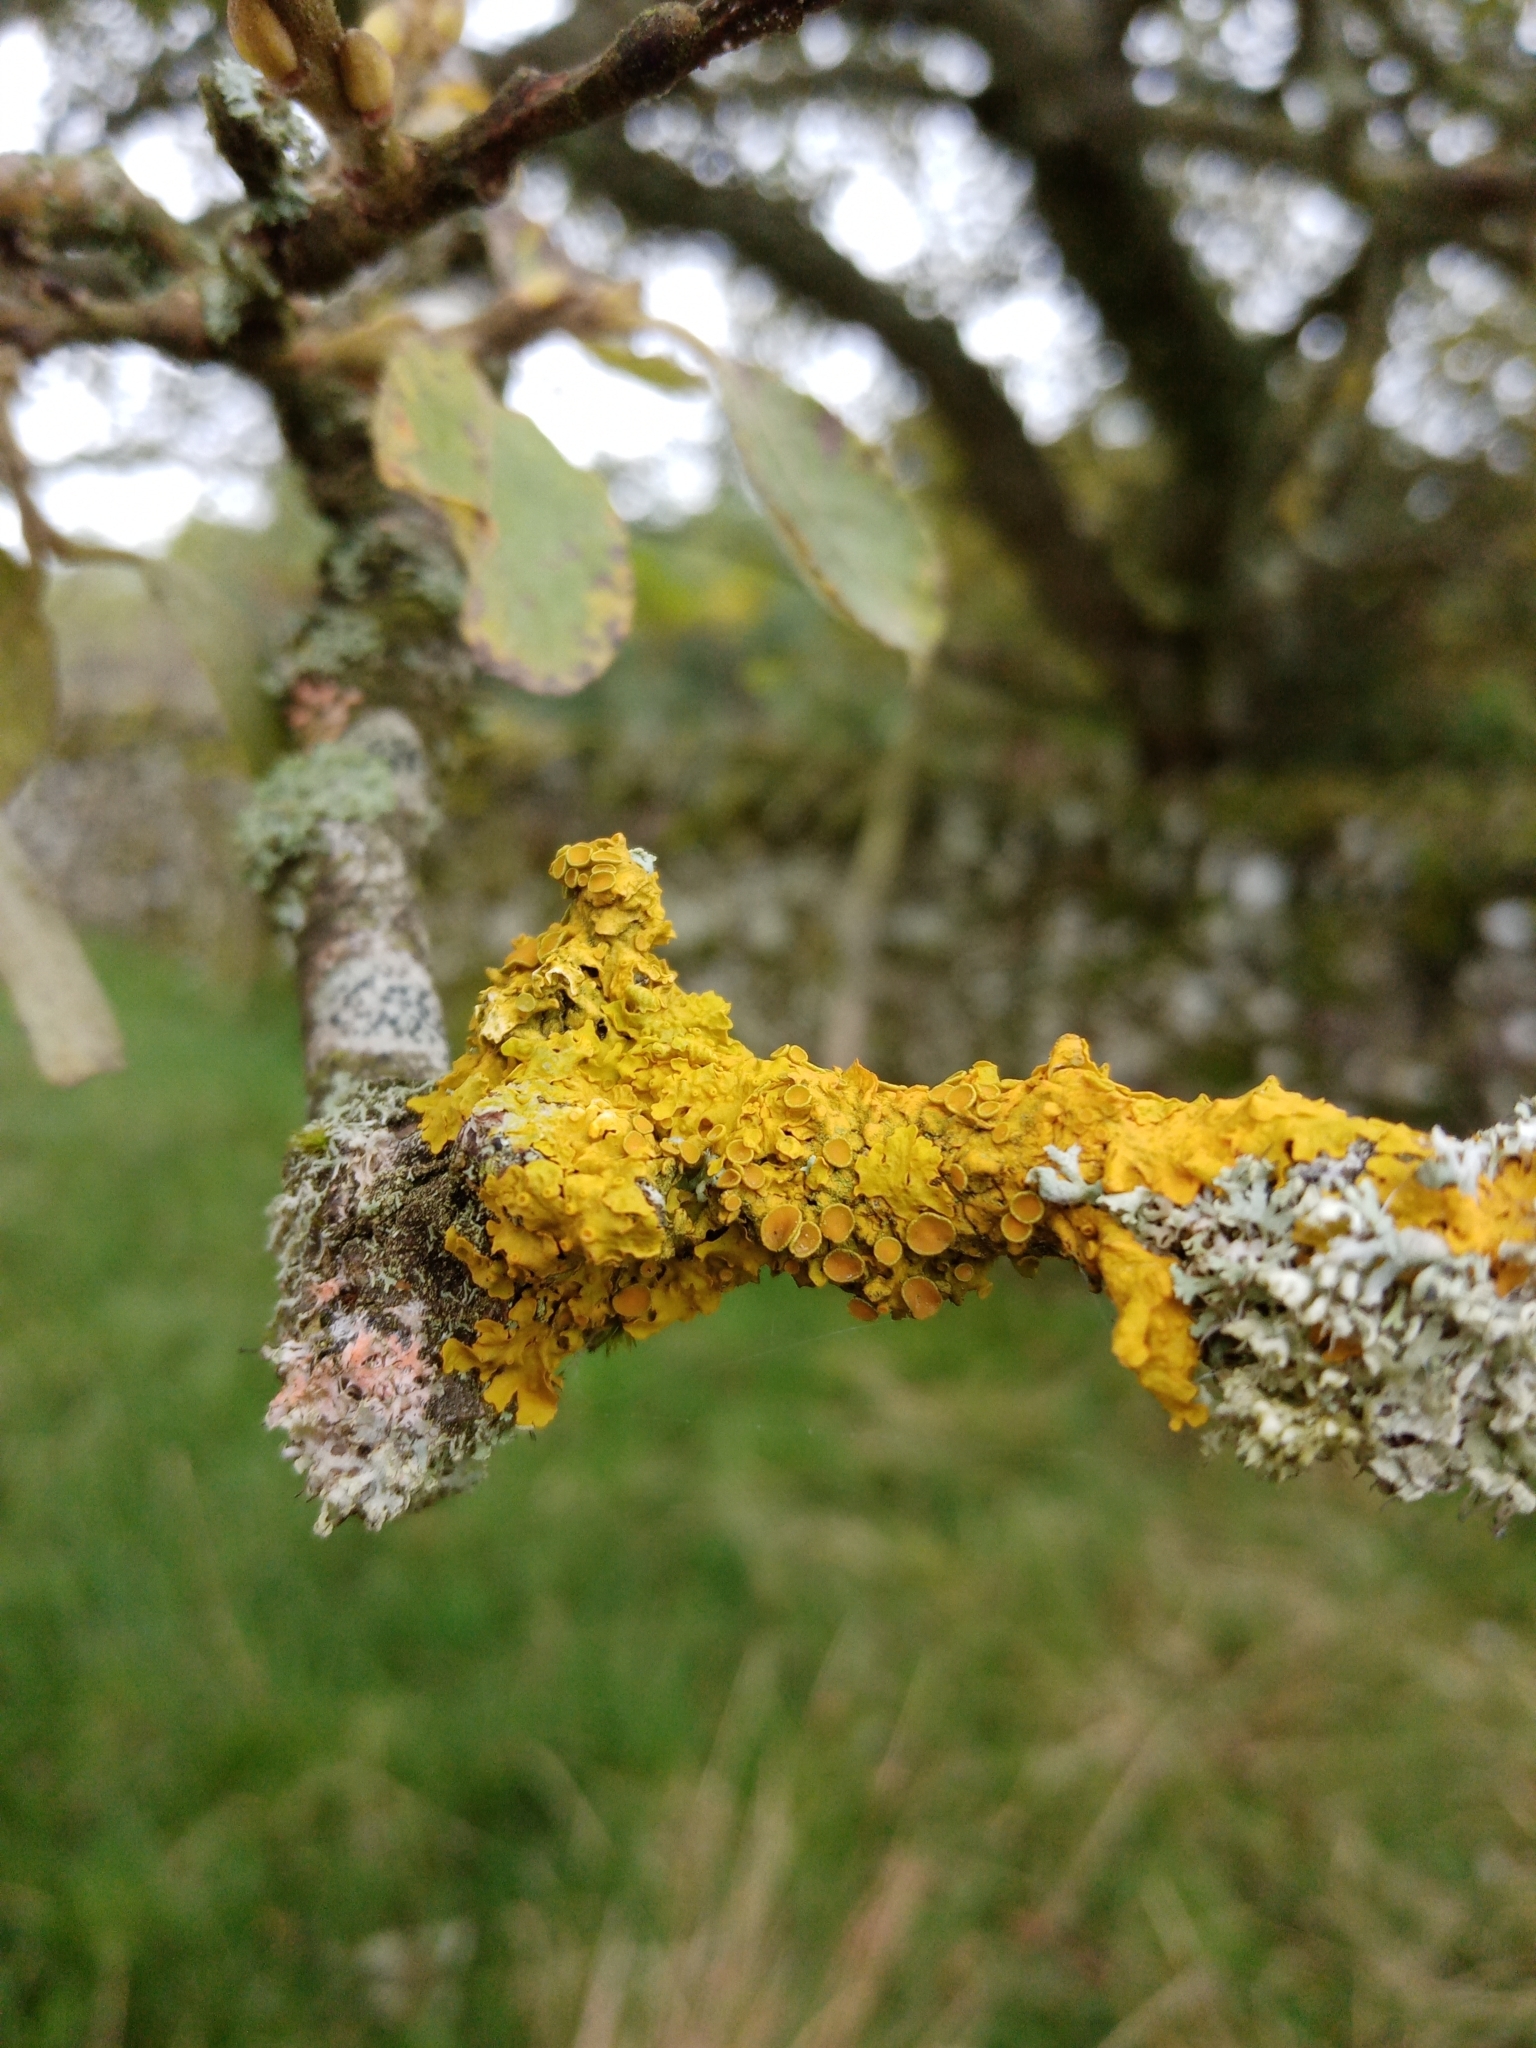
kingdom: Fungi
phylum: Ascomycota
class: Lecanoromycetes
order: Teloschistales
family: Teloschistaceae
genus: Xanthoria
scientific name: Xanthoria parietina
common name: Common orange lichen
